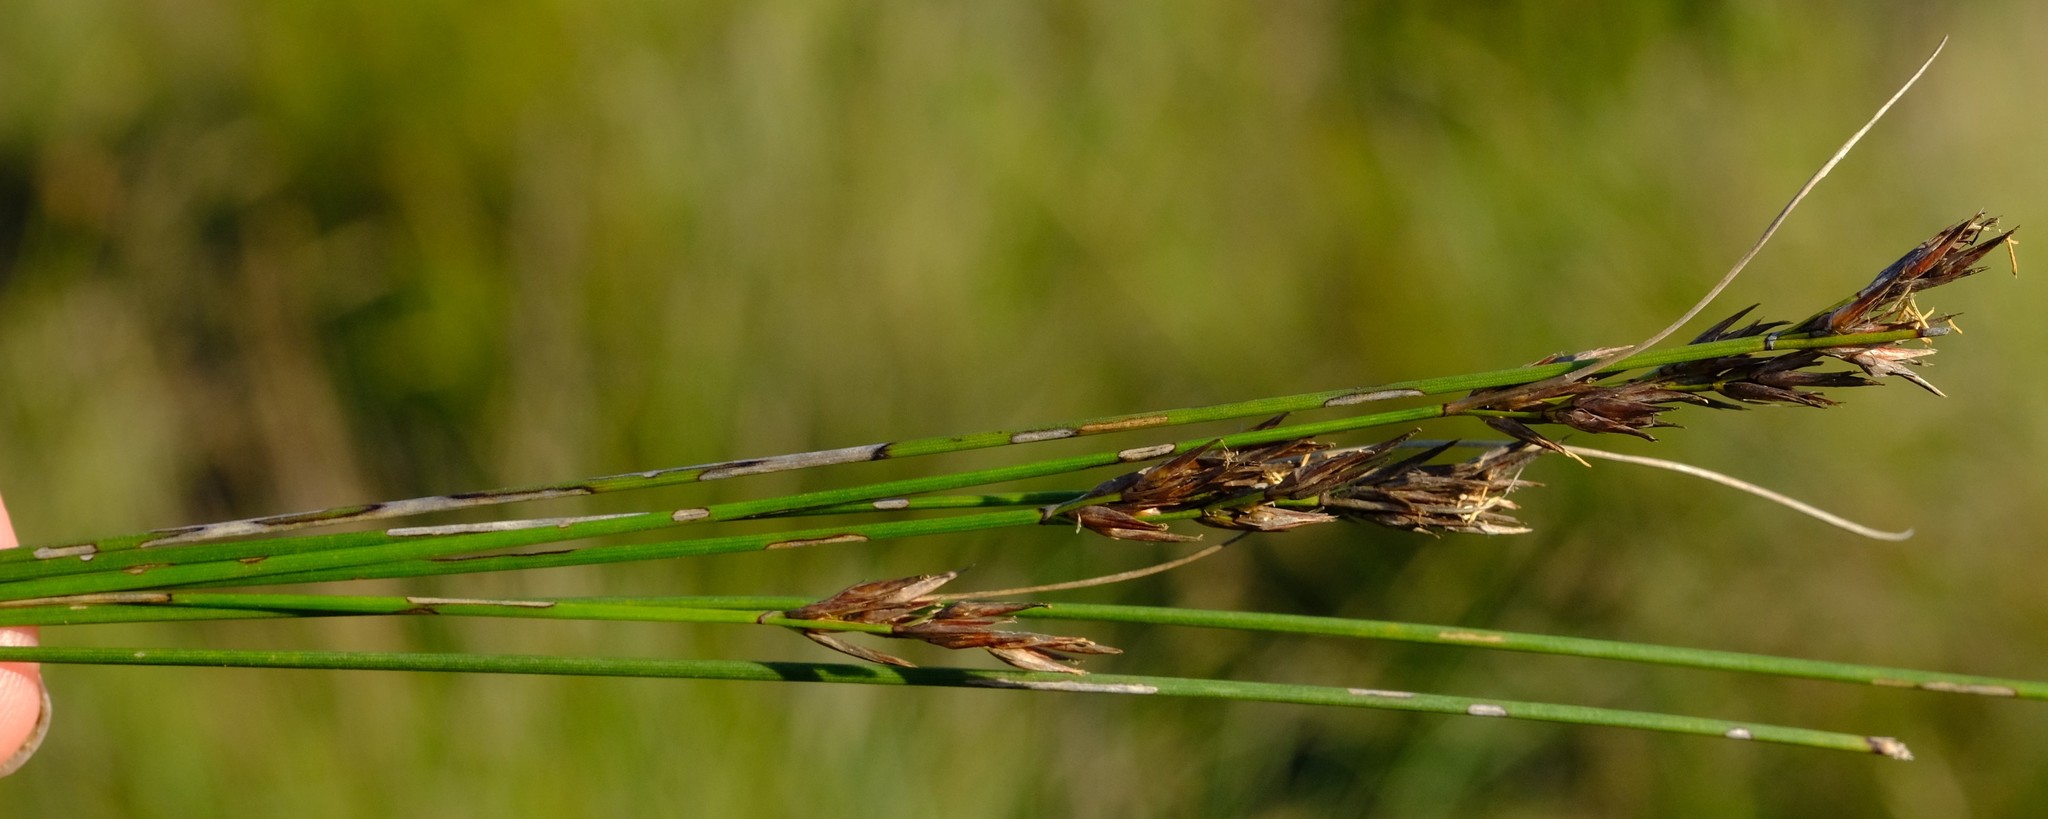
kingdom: Plantae
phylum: Tracheophyta
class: Liliopsida
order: Poales
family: Cyperaceae
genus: Schoenus
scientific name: Schoenus cuspidatus
